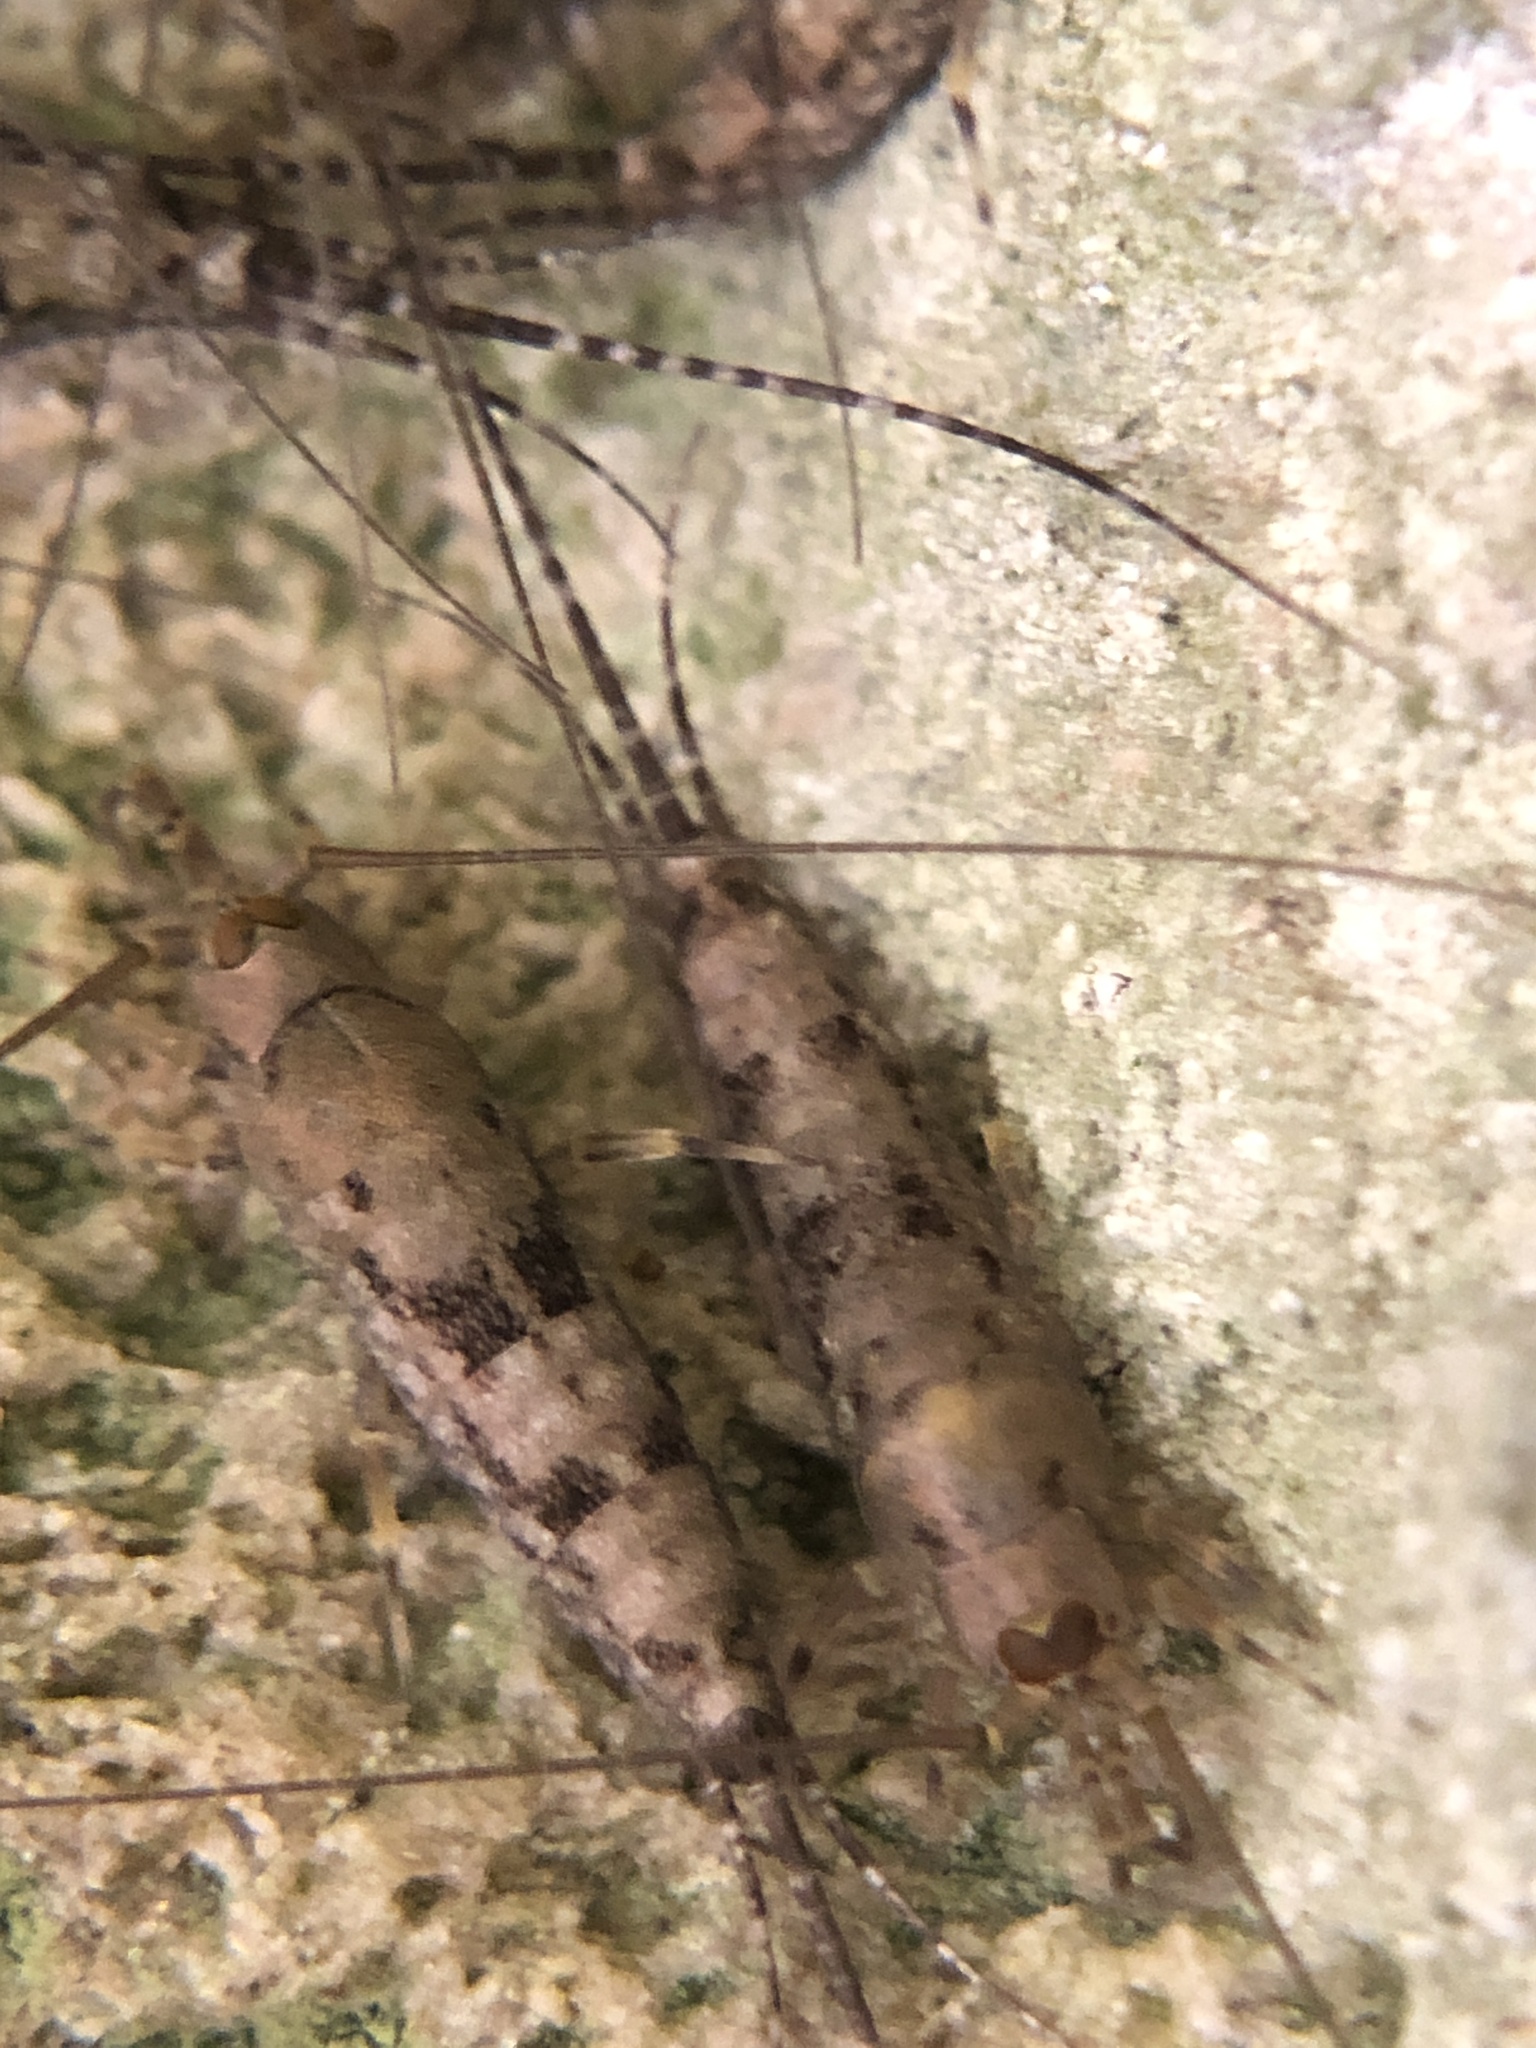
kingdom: Animalia
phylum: Arthropoda
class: Insecta
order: Archaeognatha
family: Machilidae
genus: Trigoniophthalmus
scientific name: Trigoniophthalmus alternatus
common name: Jumping bristletail
